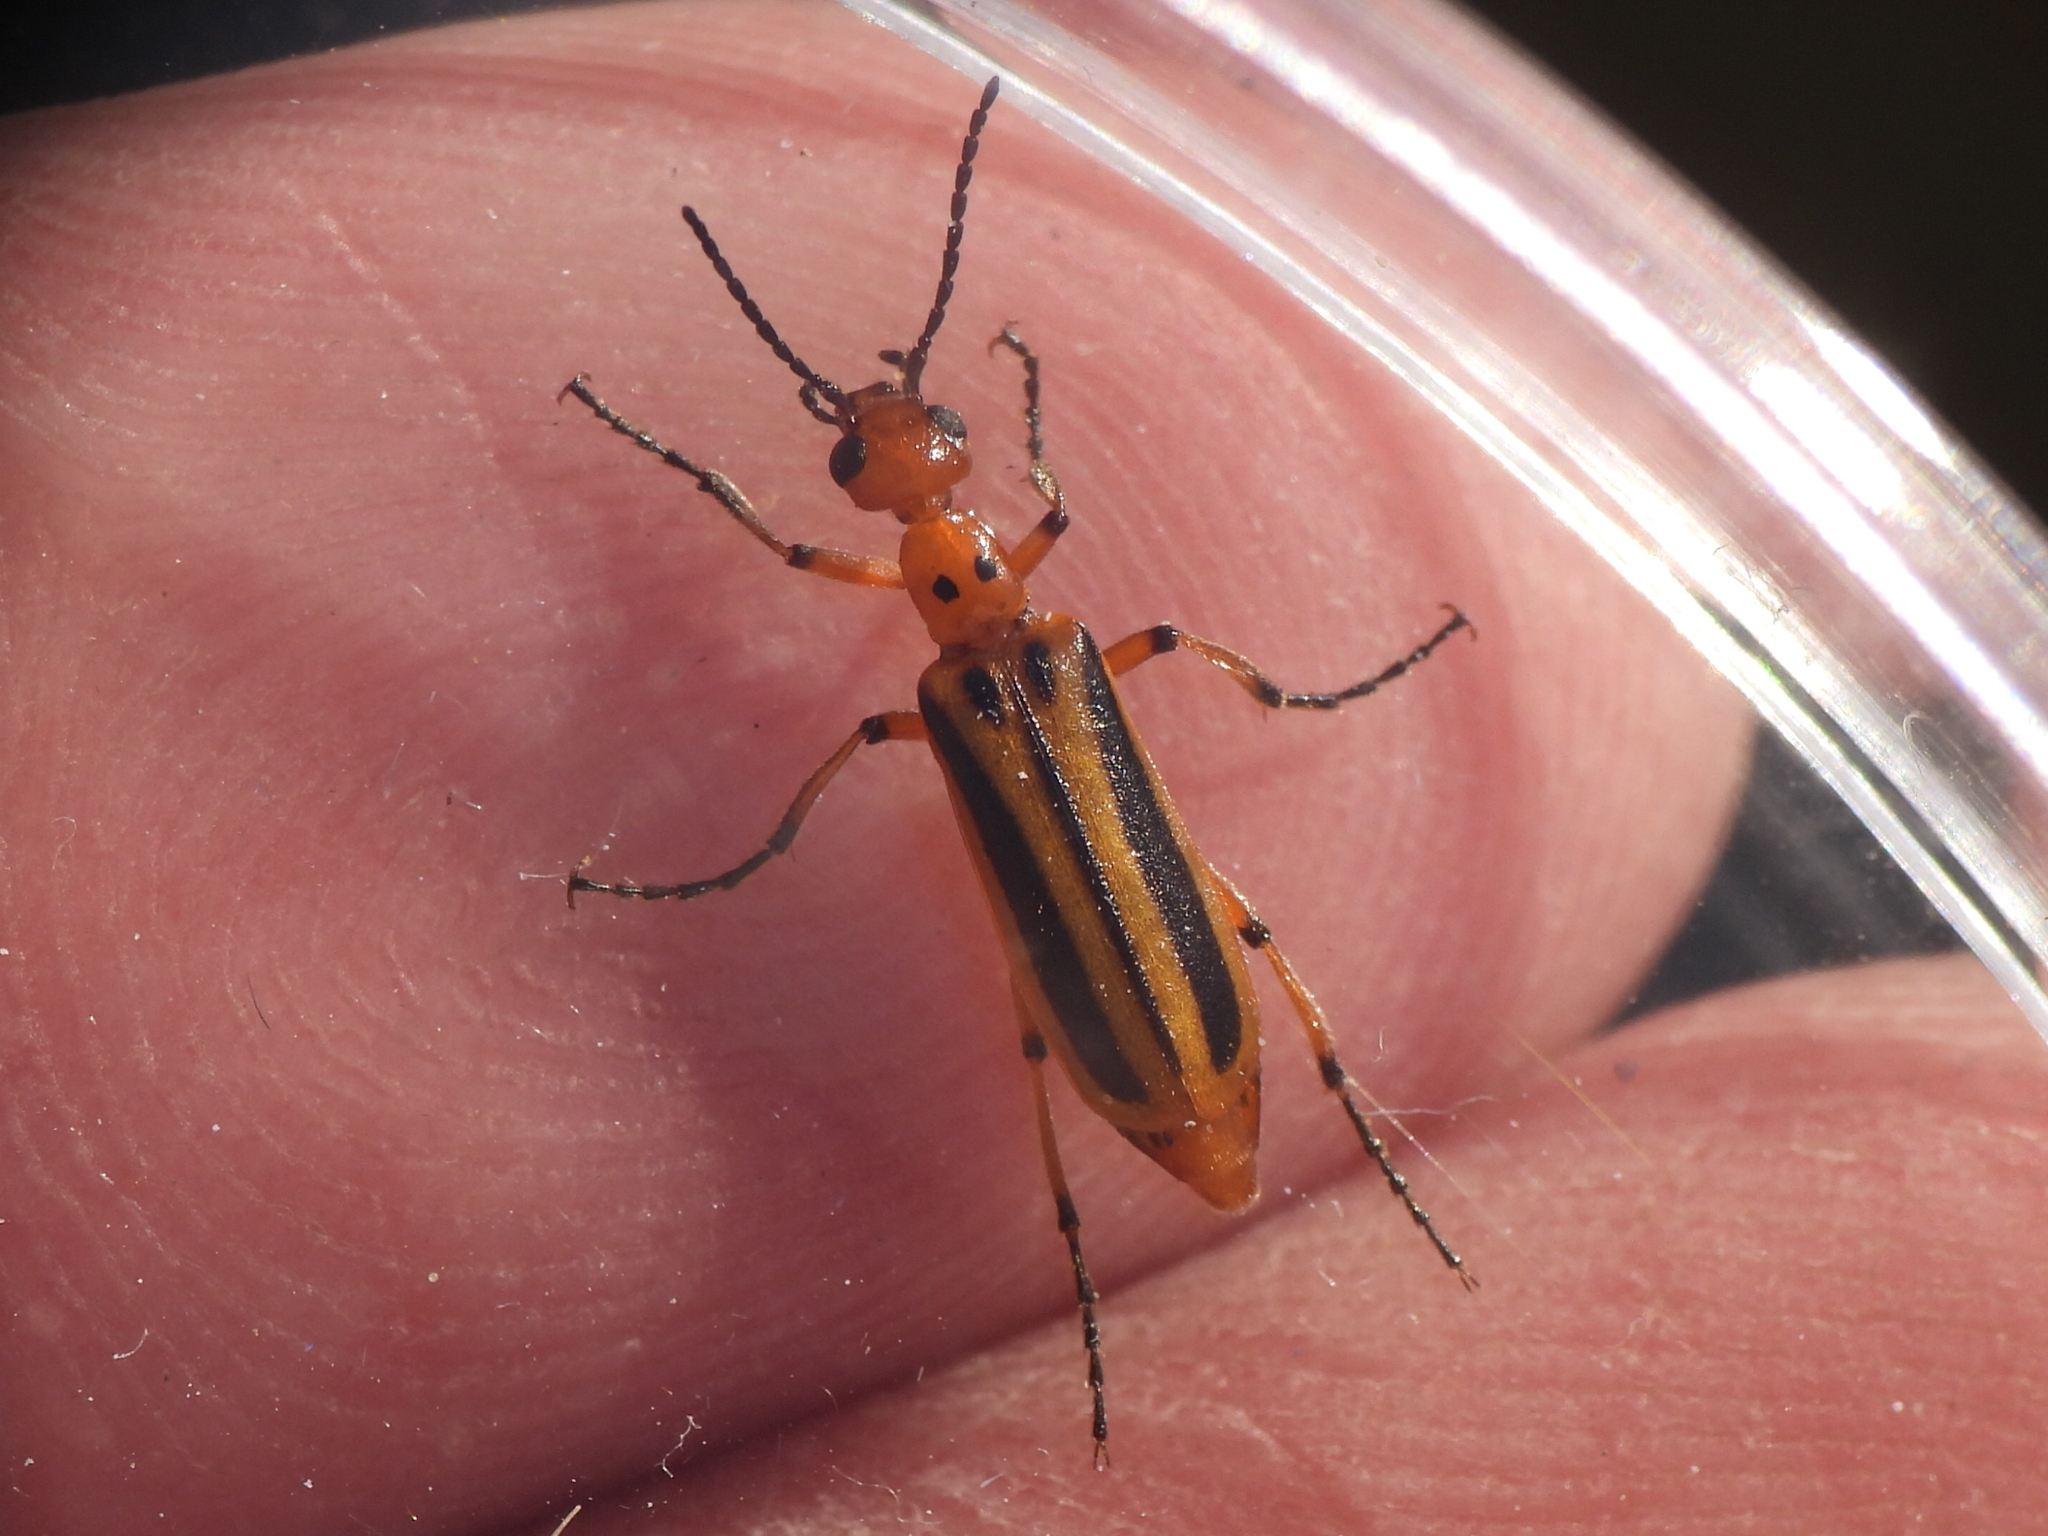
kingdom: Animalia
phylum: Arthropoda
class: Insecta
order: Coleoptera
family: Meloidae
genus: Pyrota
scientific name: Pyrota discoidea
